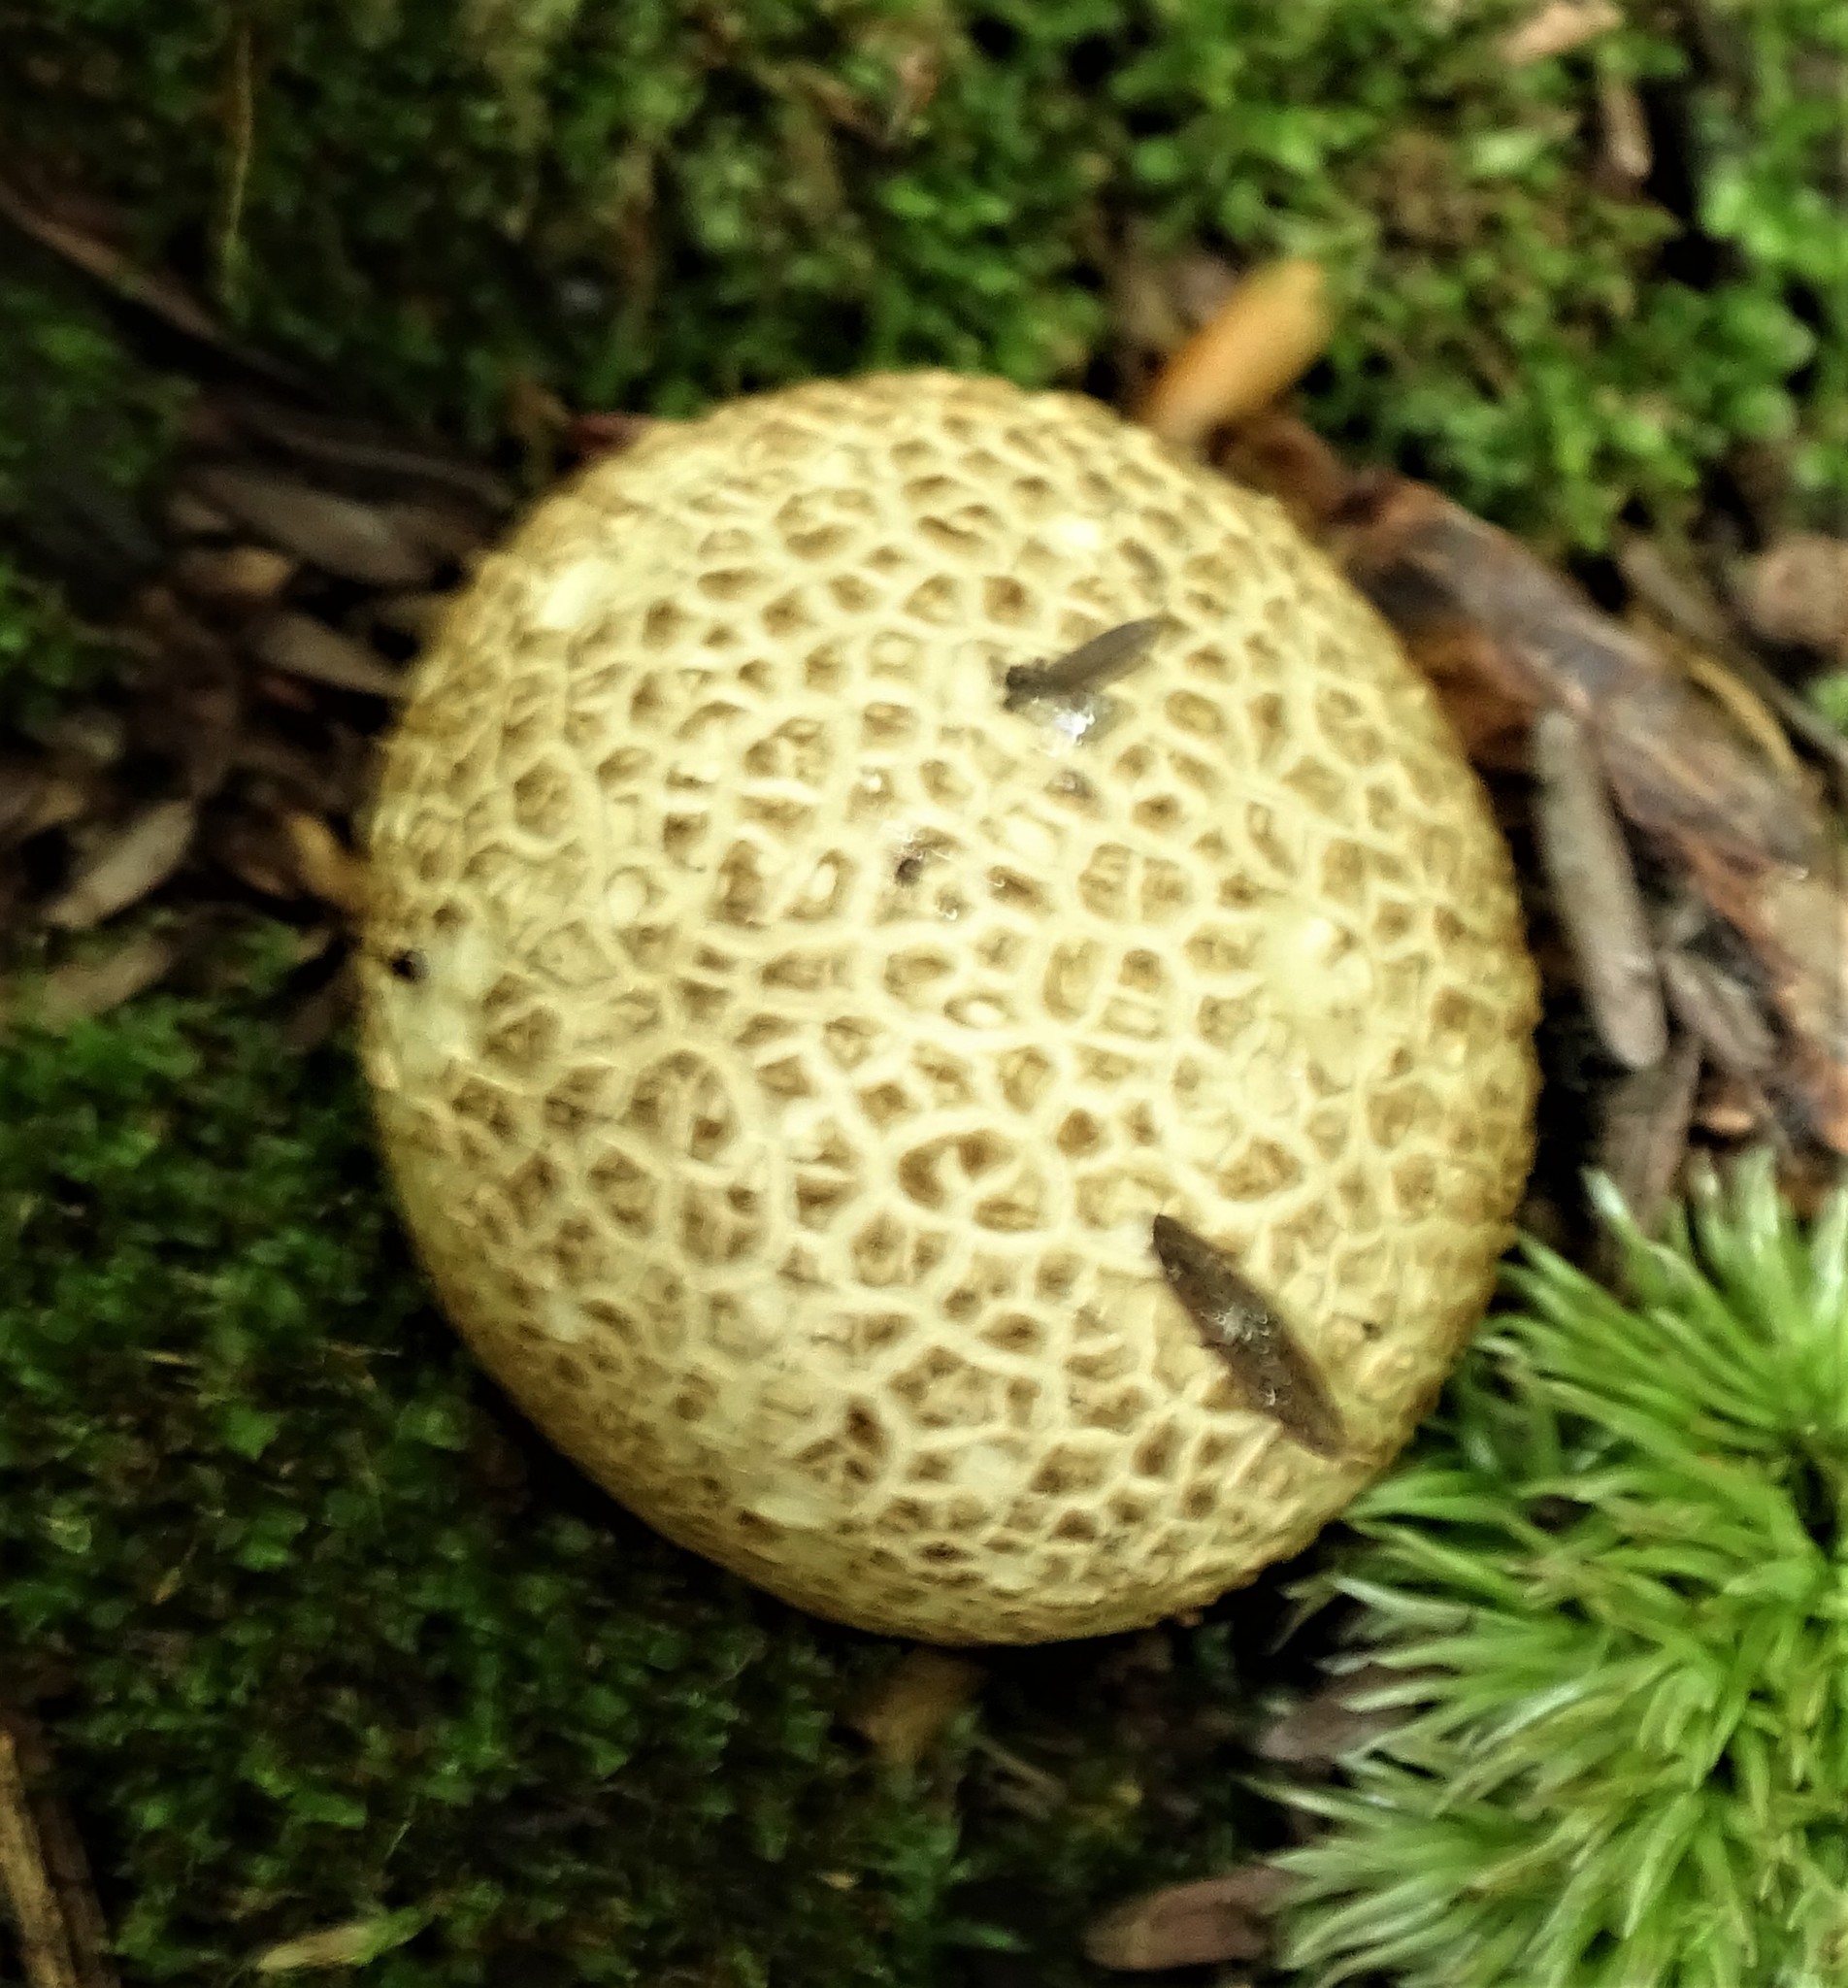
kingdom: Fungi
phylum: Basidiomycota
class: Agaricomycetes
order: Boletales
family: Sclerodermataceae
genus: Scleroderma
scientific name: Scleroderma citrinum
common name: Common earthball
